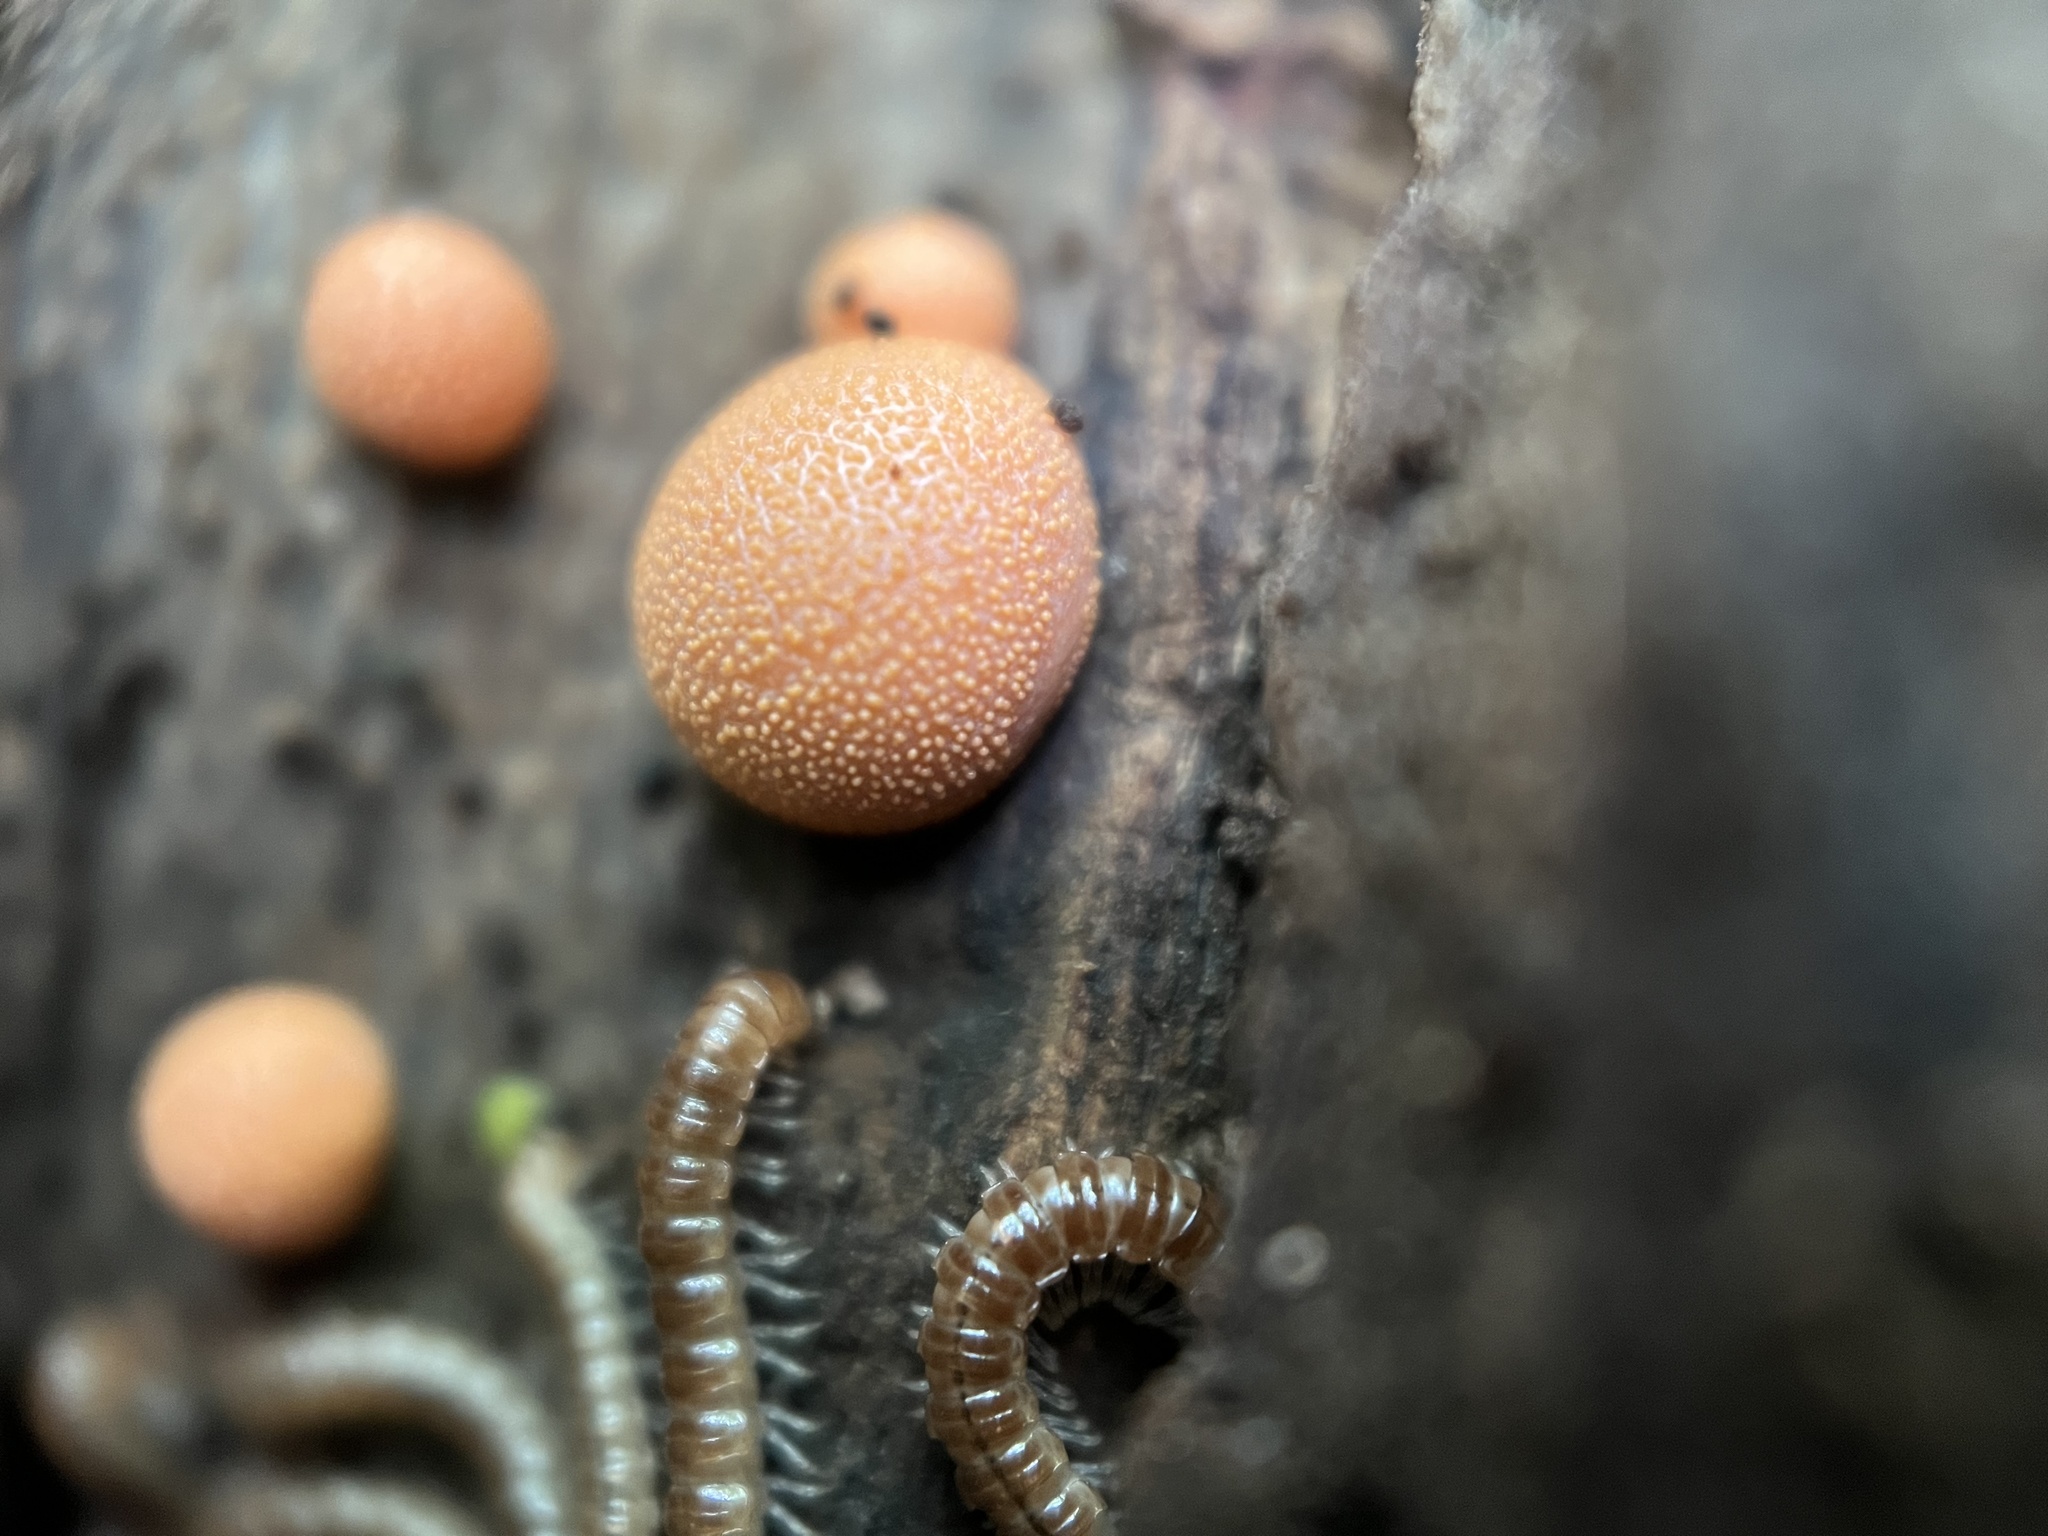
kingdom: Protozoa
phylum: Mycetozoa
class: Myxomycetes
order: Cribrariales
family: Tubiferaceae
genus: Lycogala
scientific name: Lycogala epidendrum
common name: Wolf's milk
